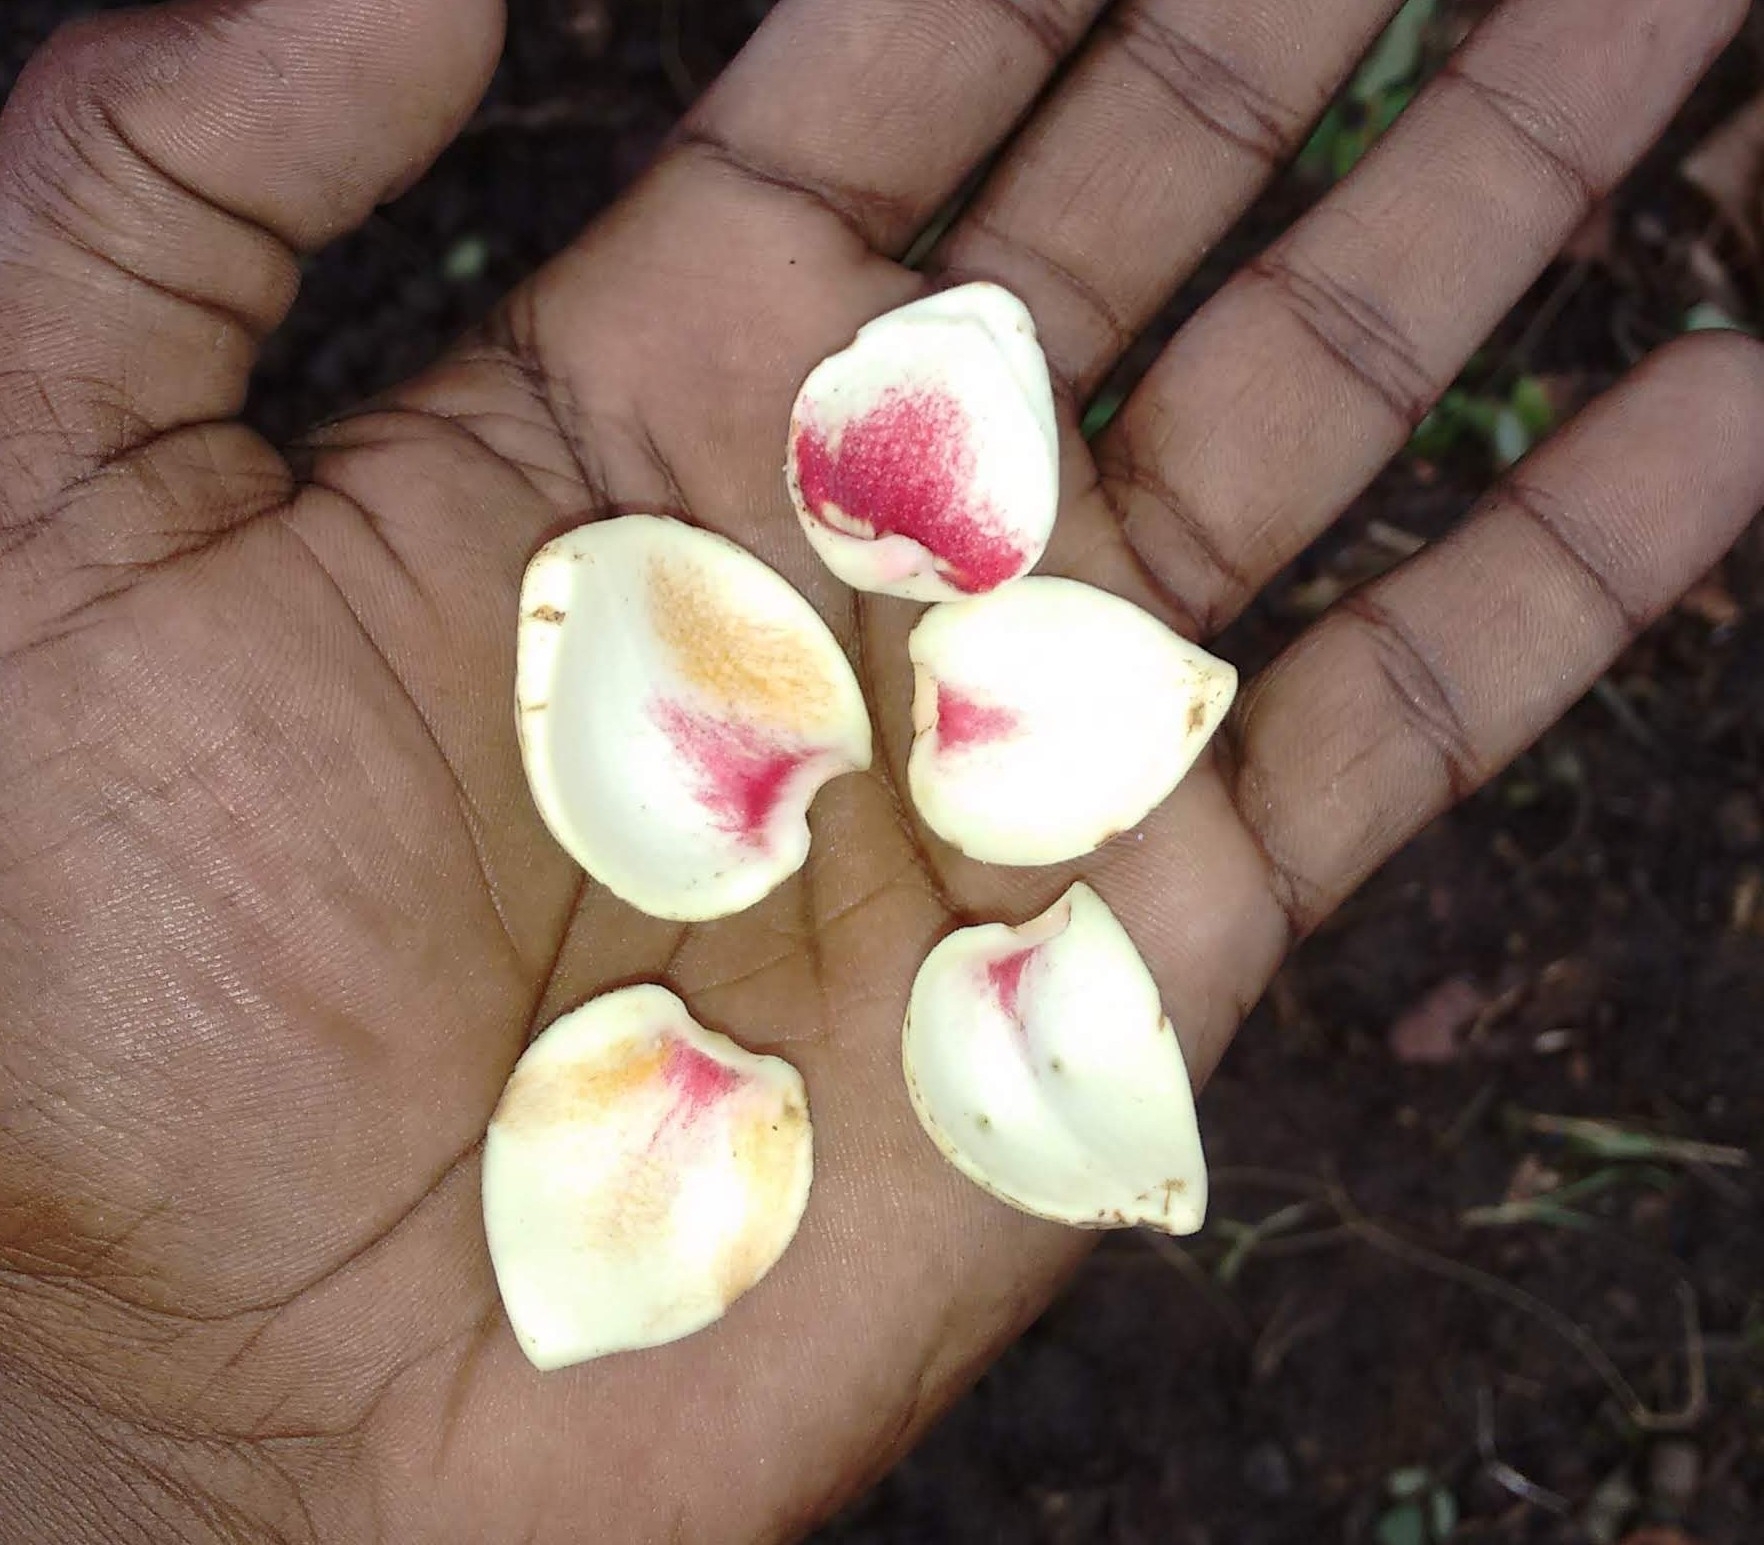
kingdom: Plantae
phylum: Tracheophyta
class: Magnoliopsida
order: Magnoliales
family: Annonaceae
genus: Annona
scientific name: Annona glabra
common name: Monkey apple
